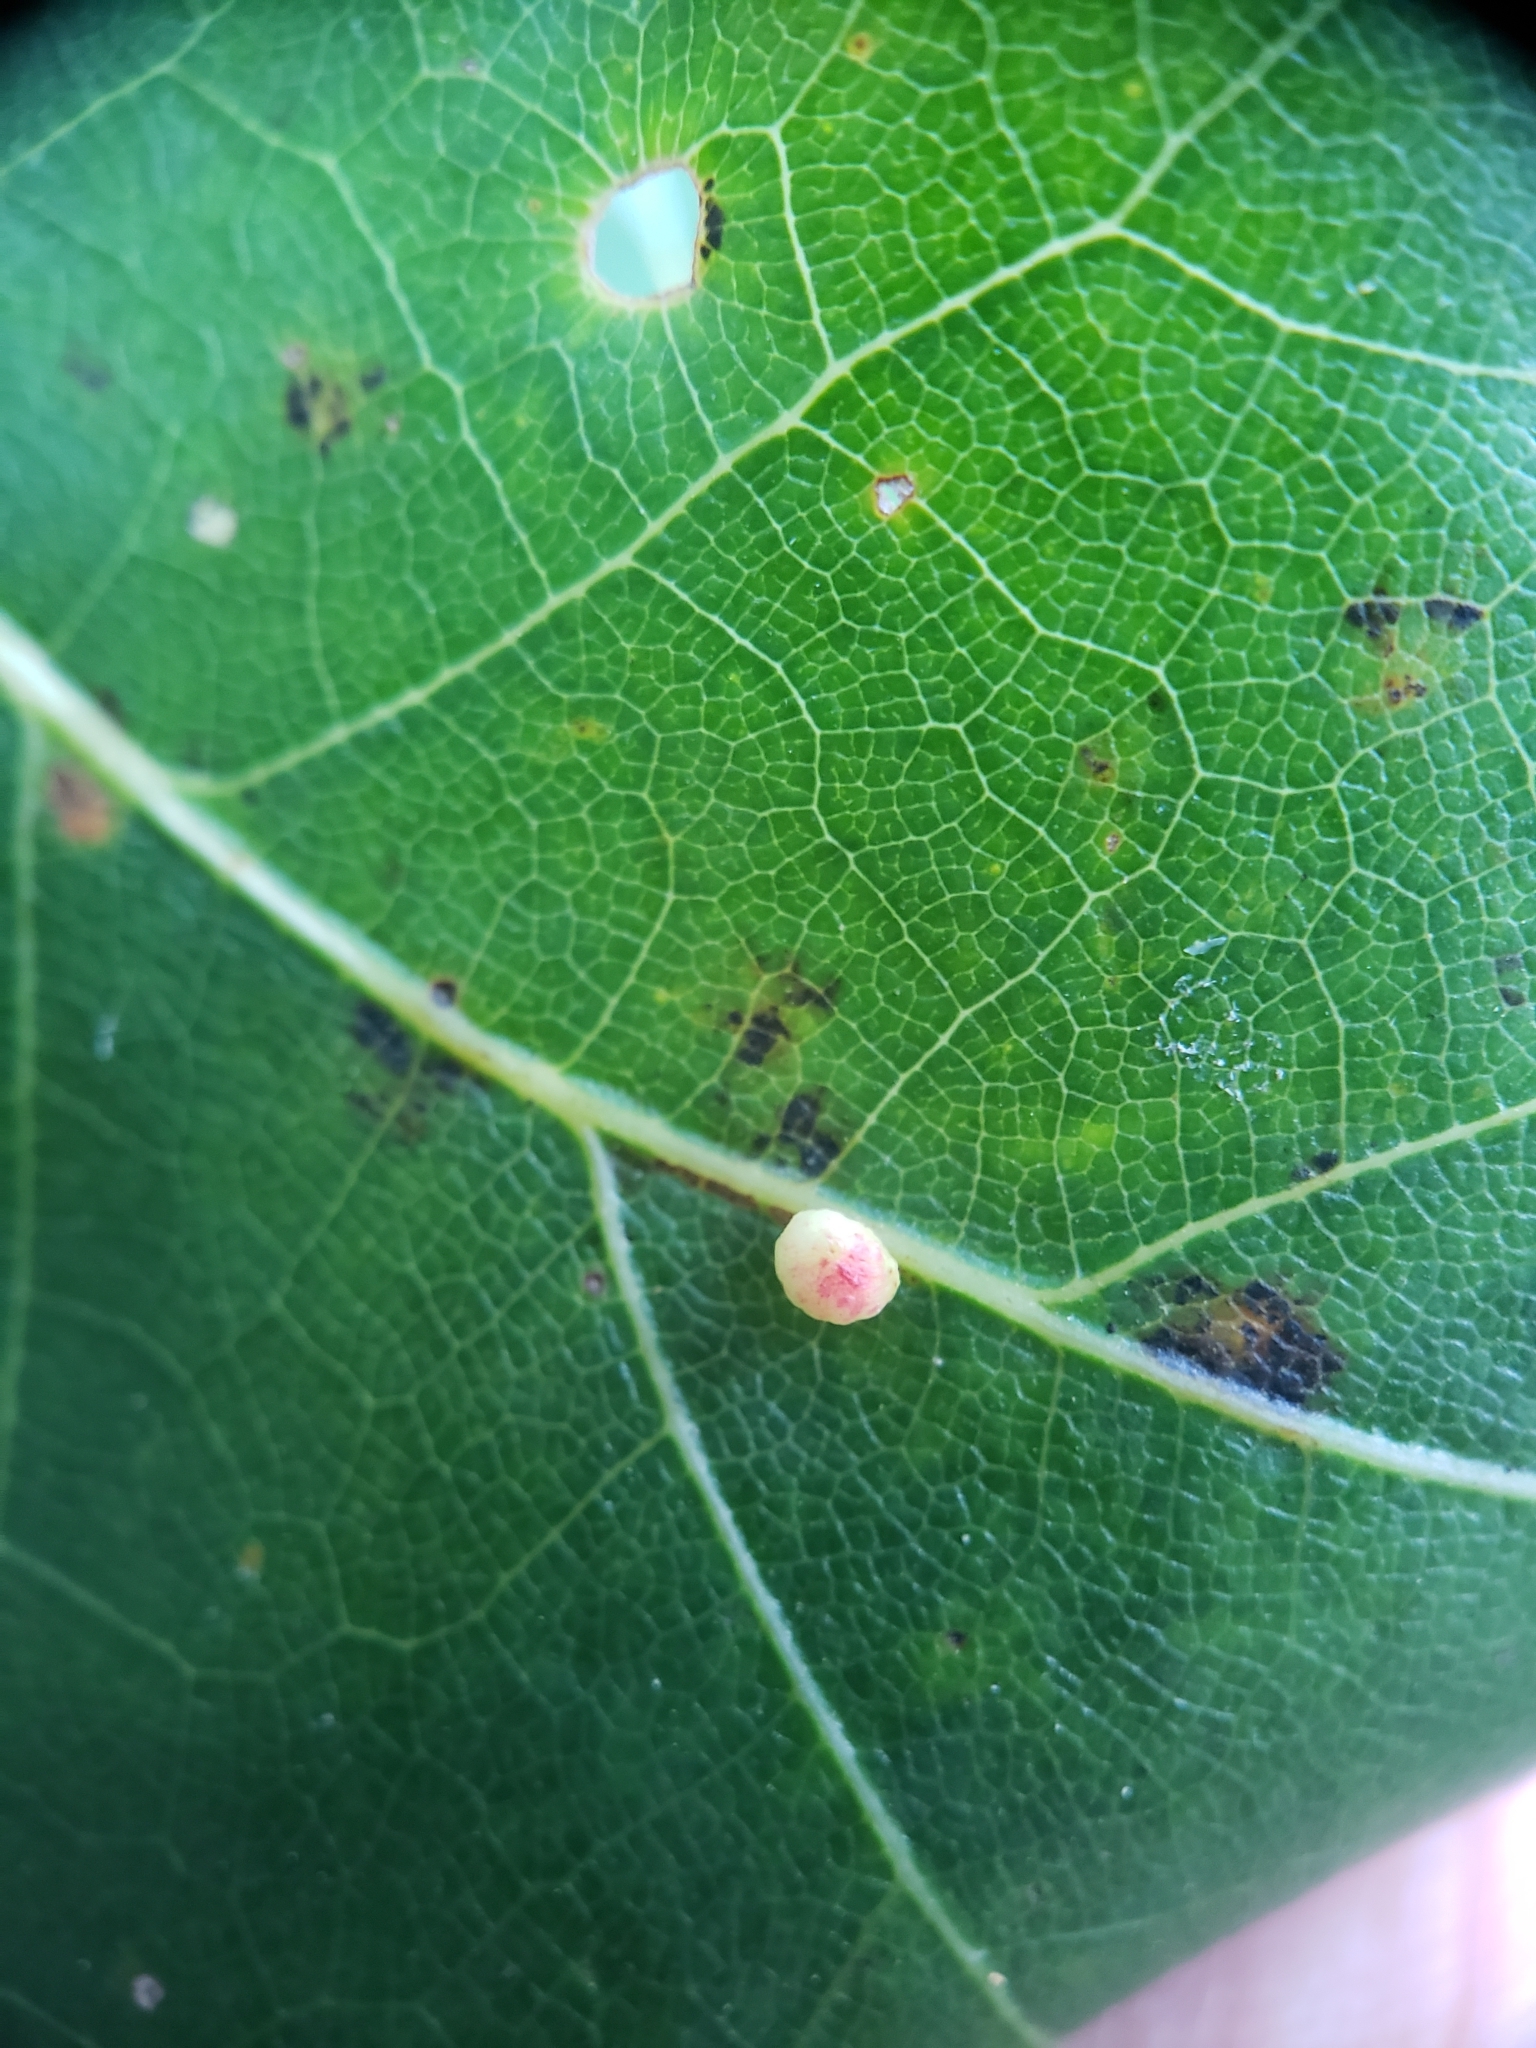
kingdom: Animalia
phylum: Arthropoda
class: Insecta
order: Hymenoptera
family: Cynipidae
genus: Zopheroteras
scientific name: Zopheroteras
